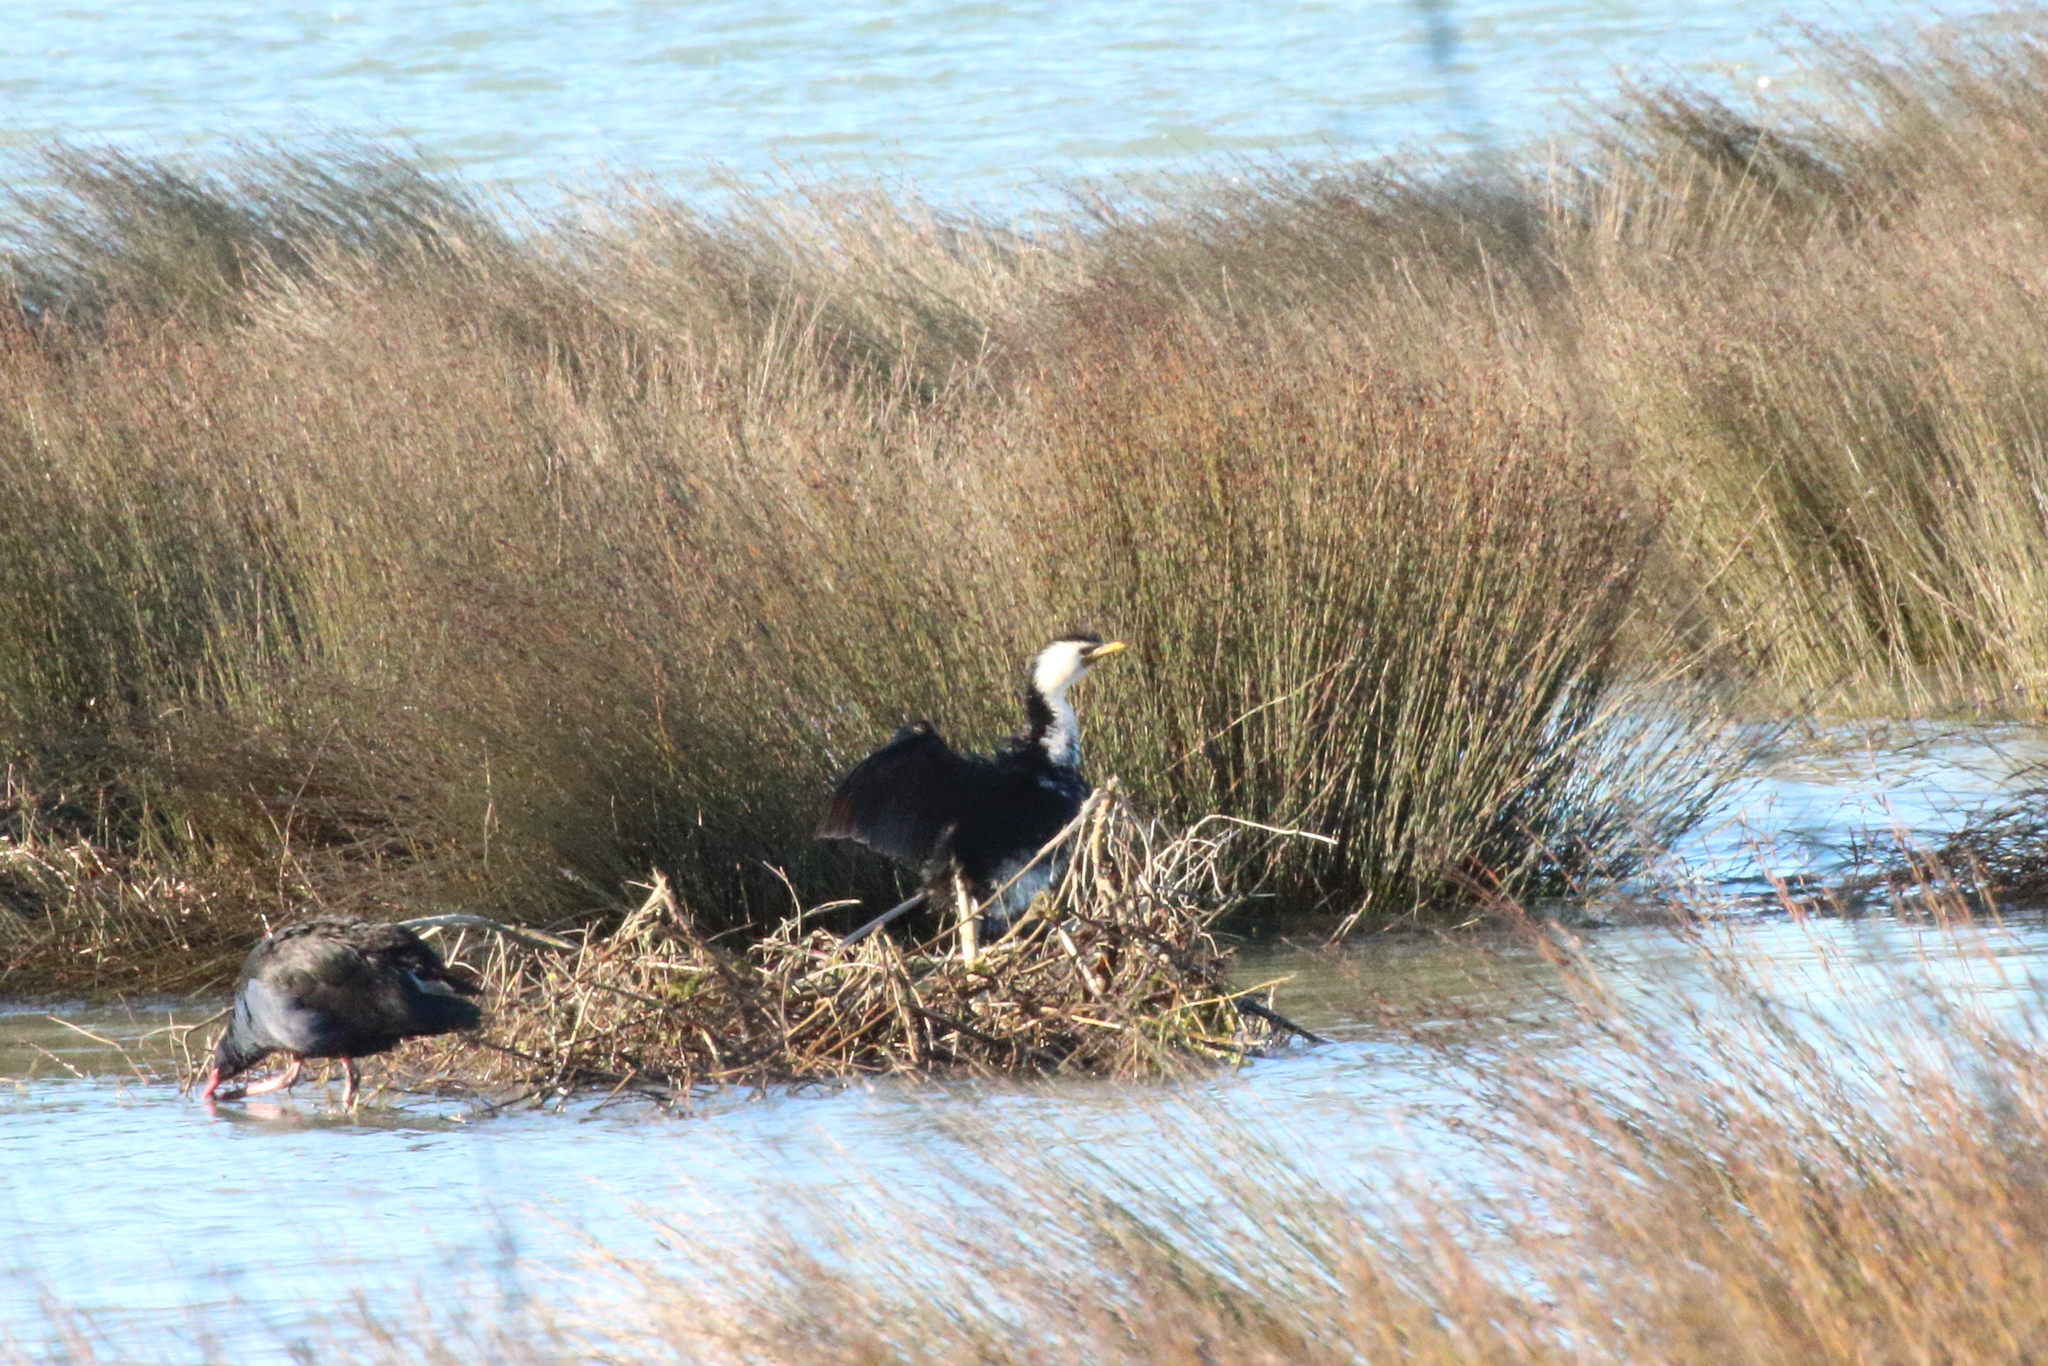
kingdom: Animalia
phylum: Chordata
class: Aves
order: Suliformes
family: Phalacrocoracidae
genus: Microcarbo
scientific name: Microcarbo melanoleucos
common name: Little pied cormorant
